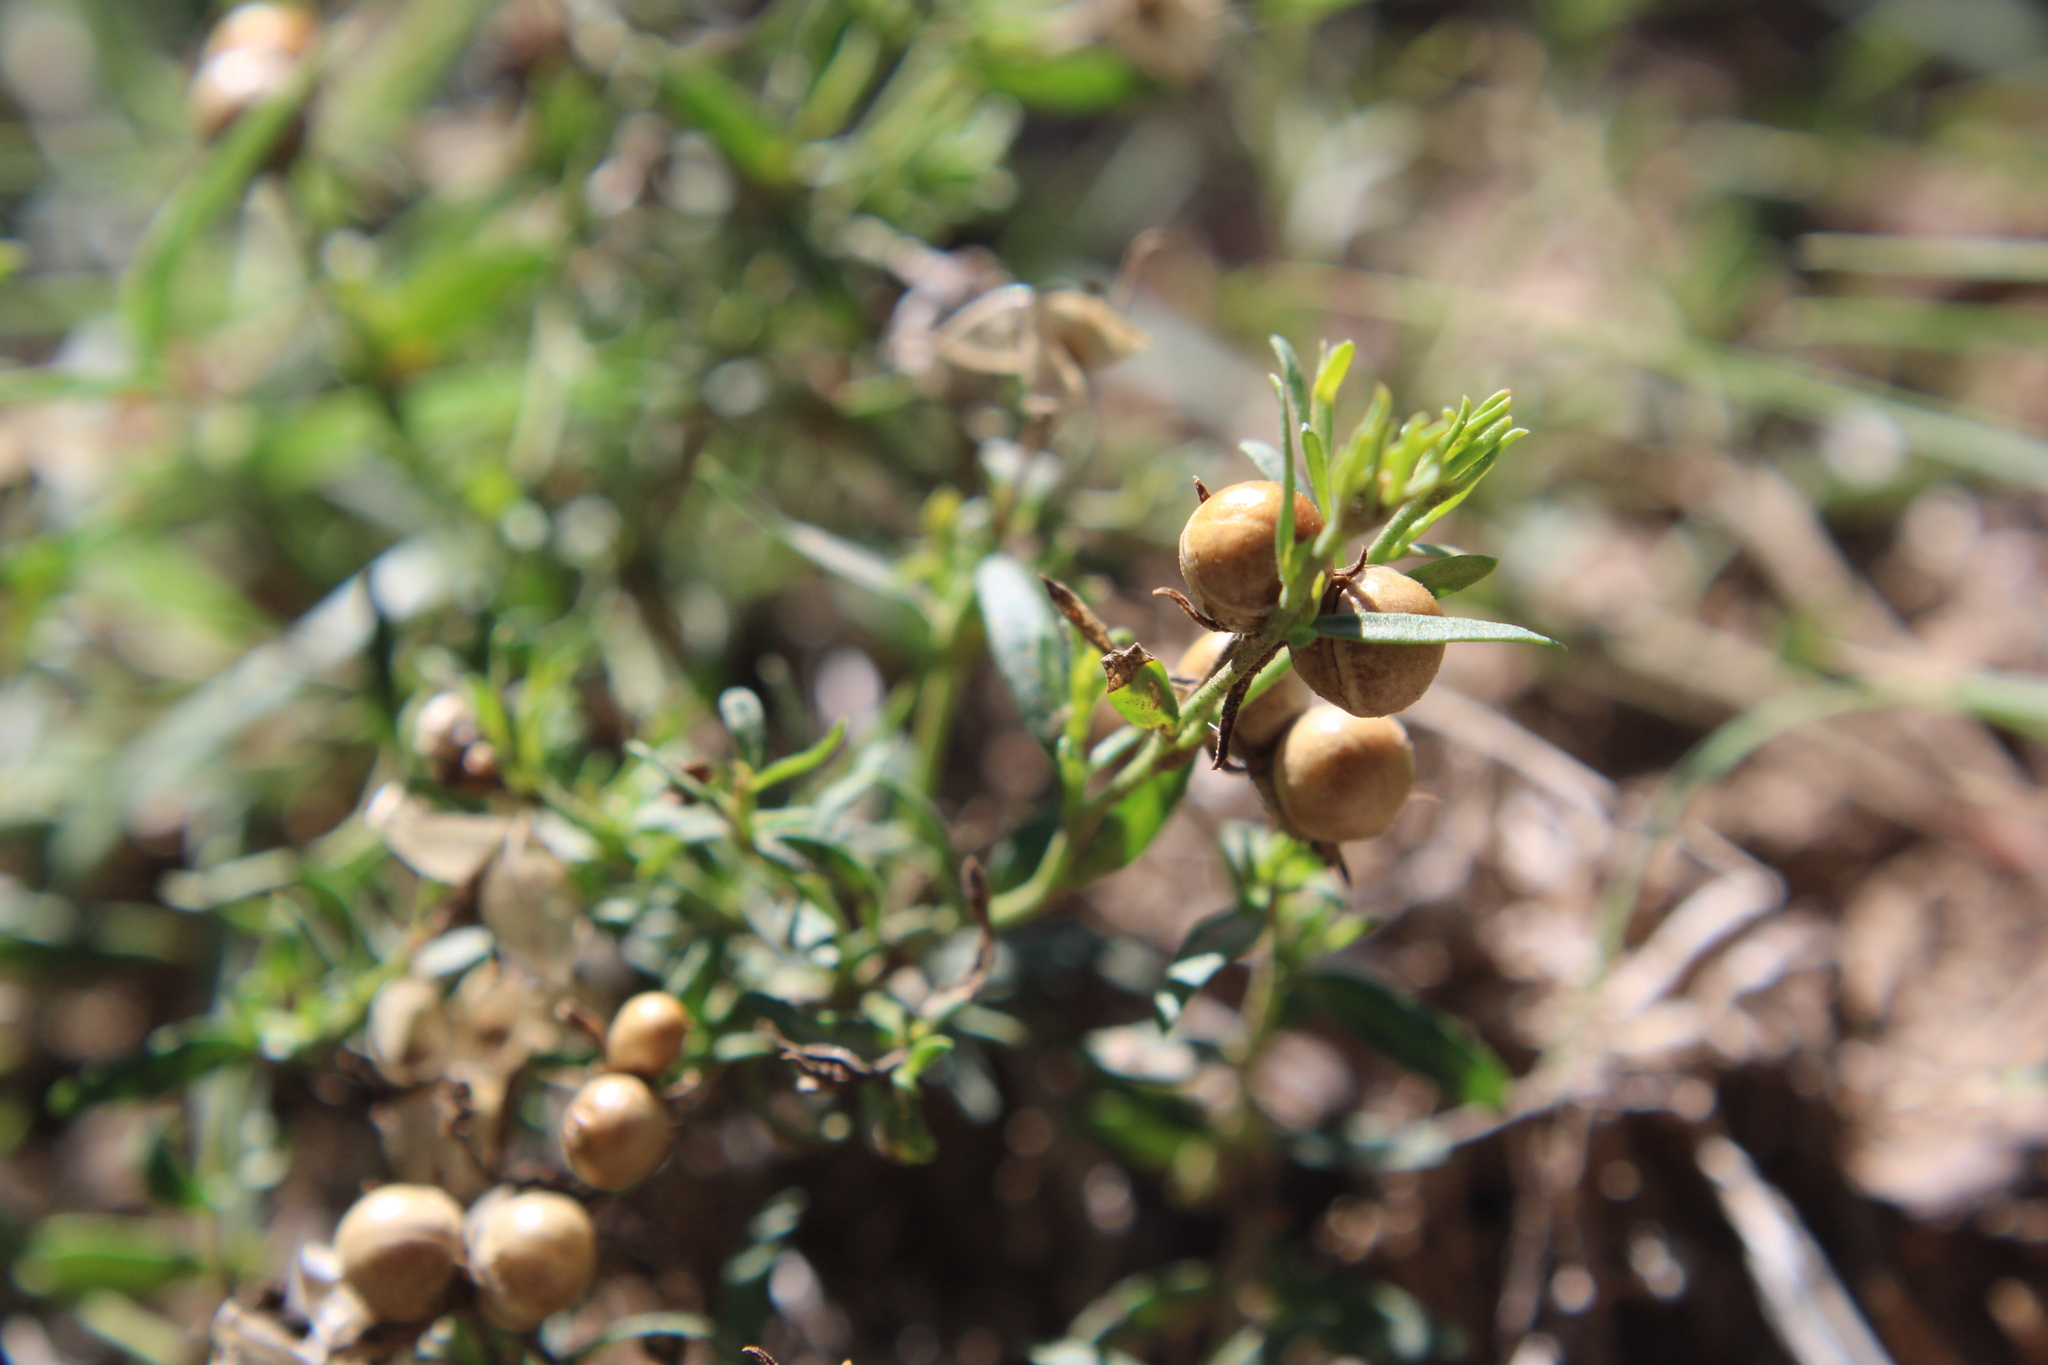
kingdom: Plantae
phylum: Tracheophyta
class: Magnoliopsida
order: Lamiales
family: Oleaceae
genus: Menodora
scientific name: Menodora integrifolia
